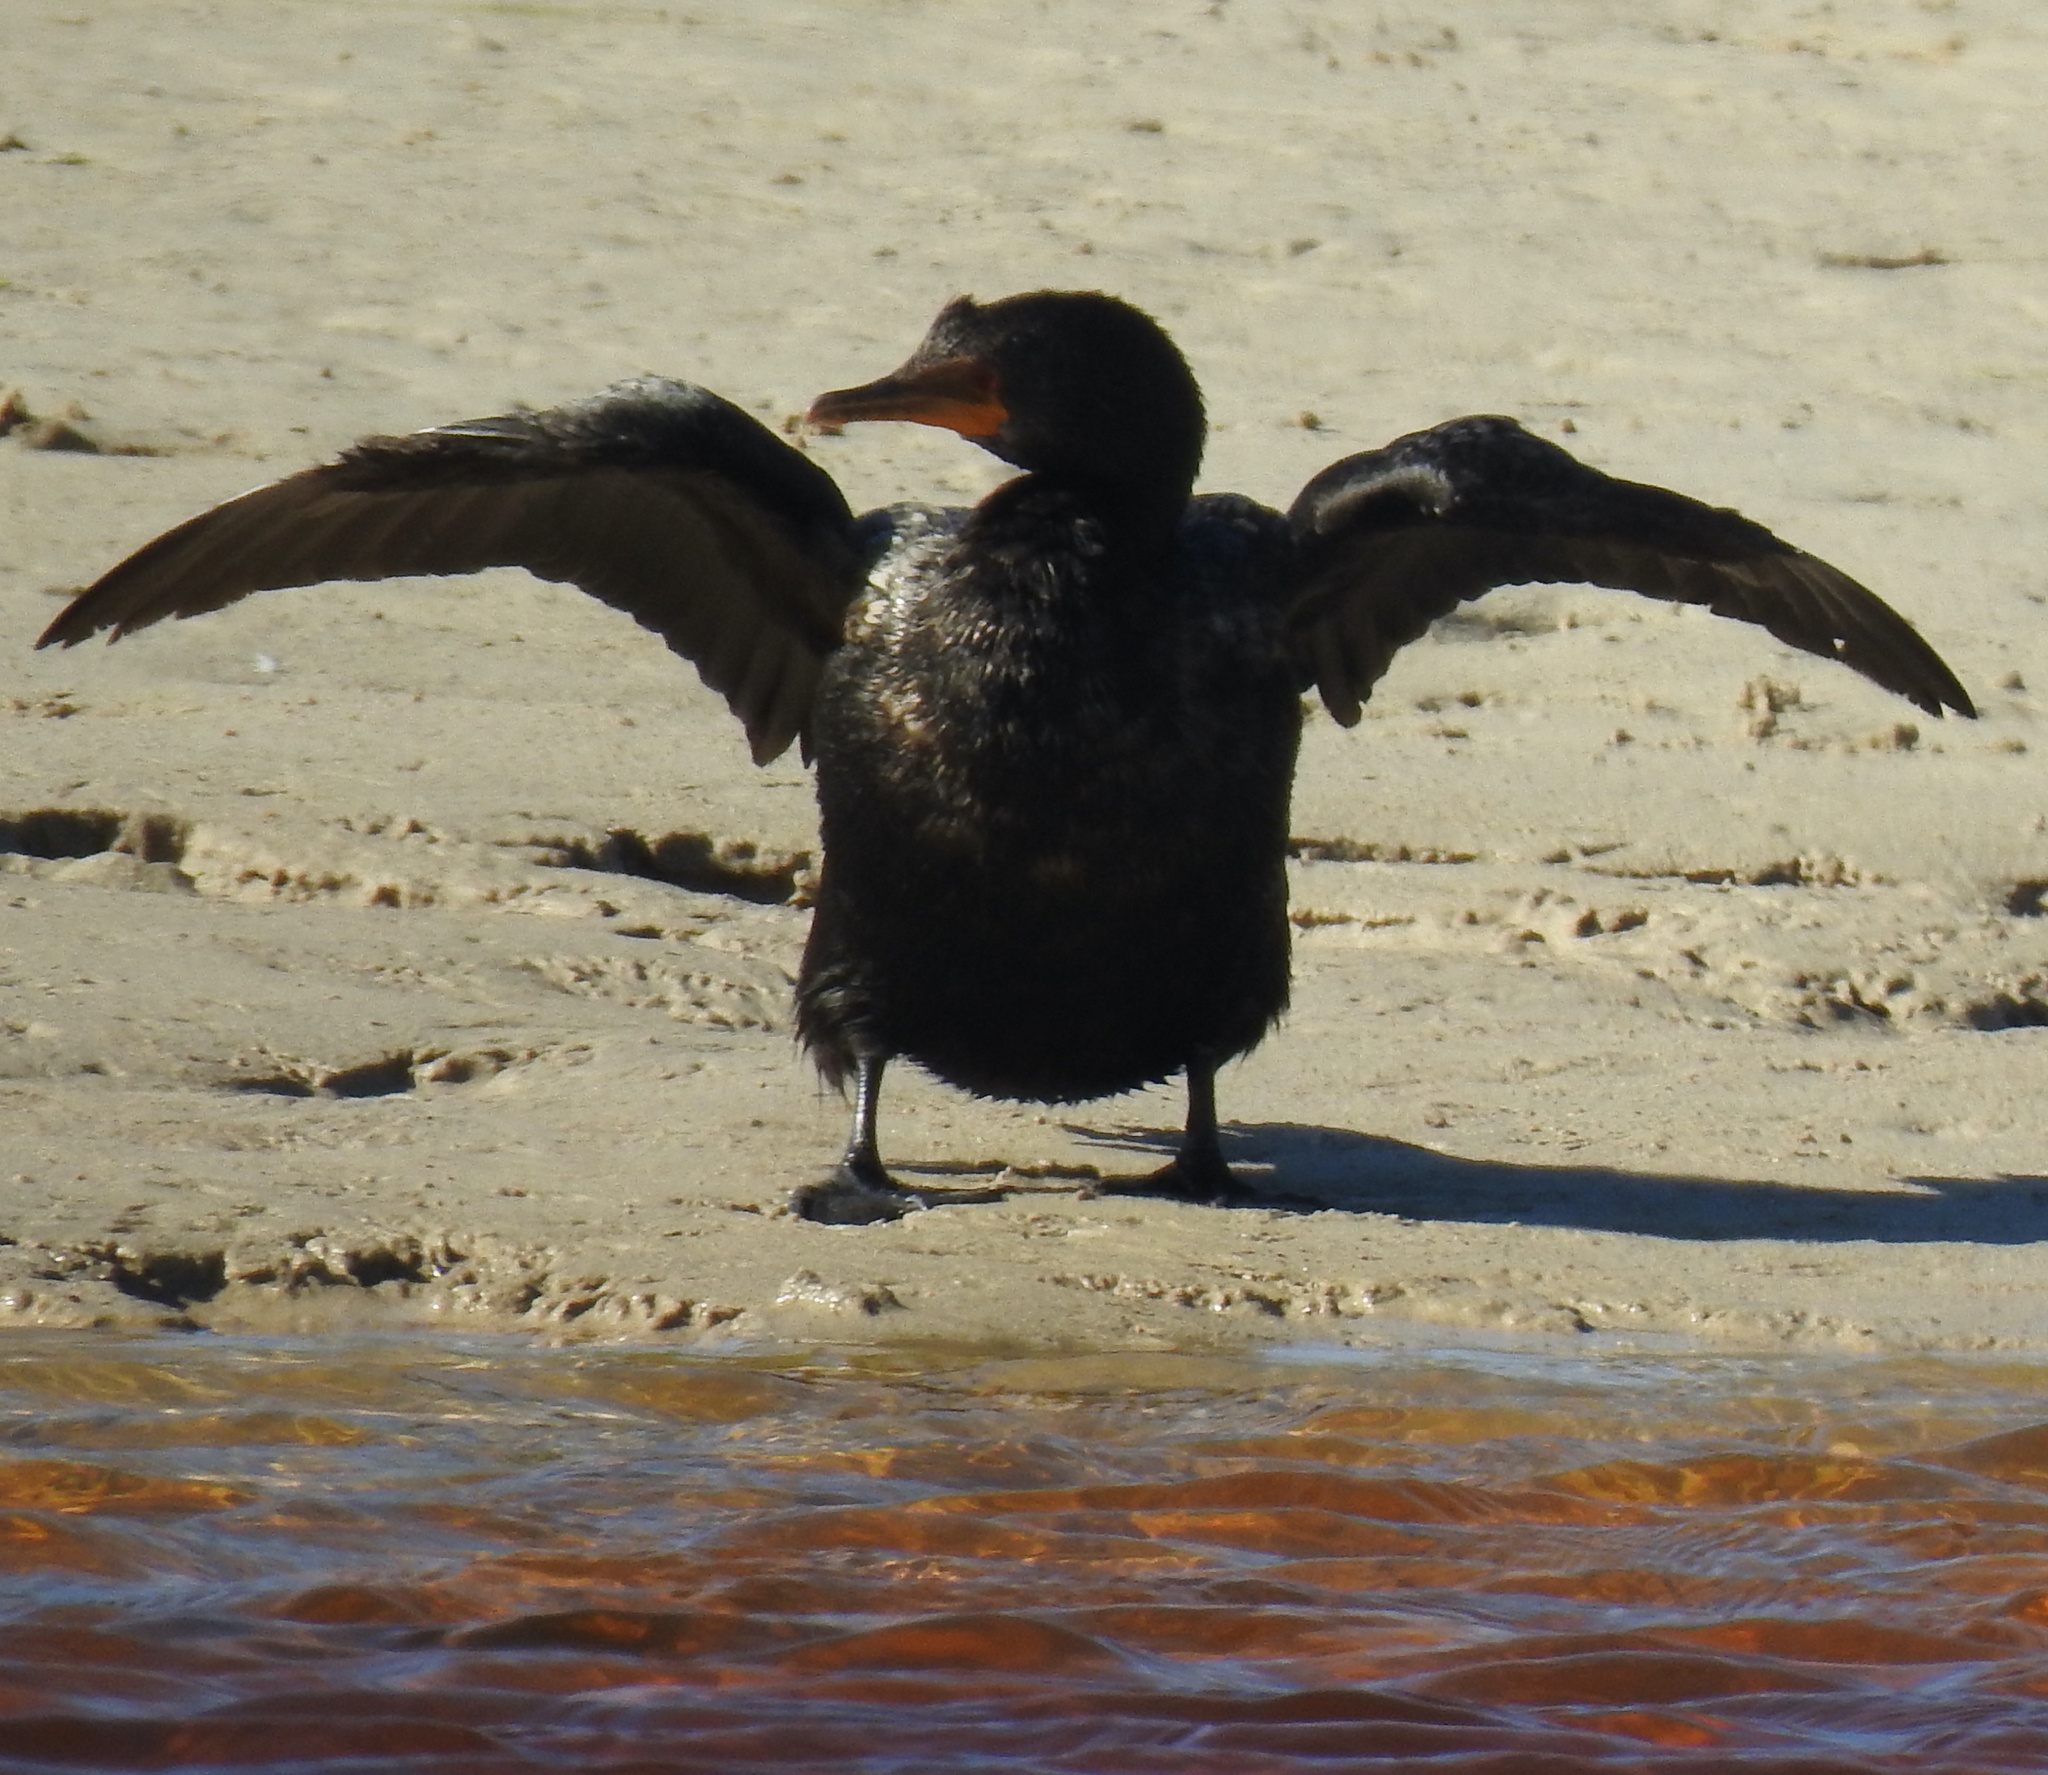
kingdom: Animalia
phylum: Chordata
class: Aves
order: Suliformes
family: Phalacrocoracidae
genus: Microcarbo
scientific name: Microcarbo africanus
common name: Long-tailed cormorant
